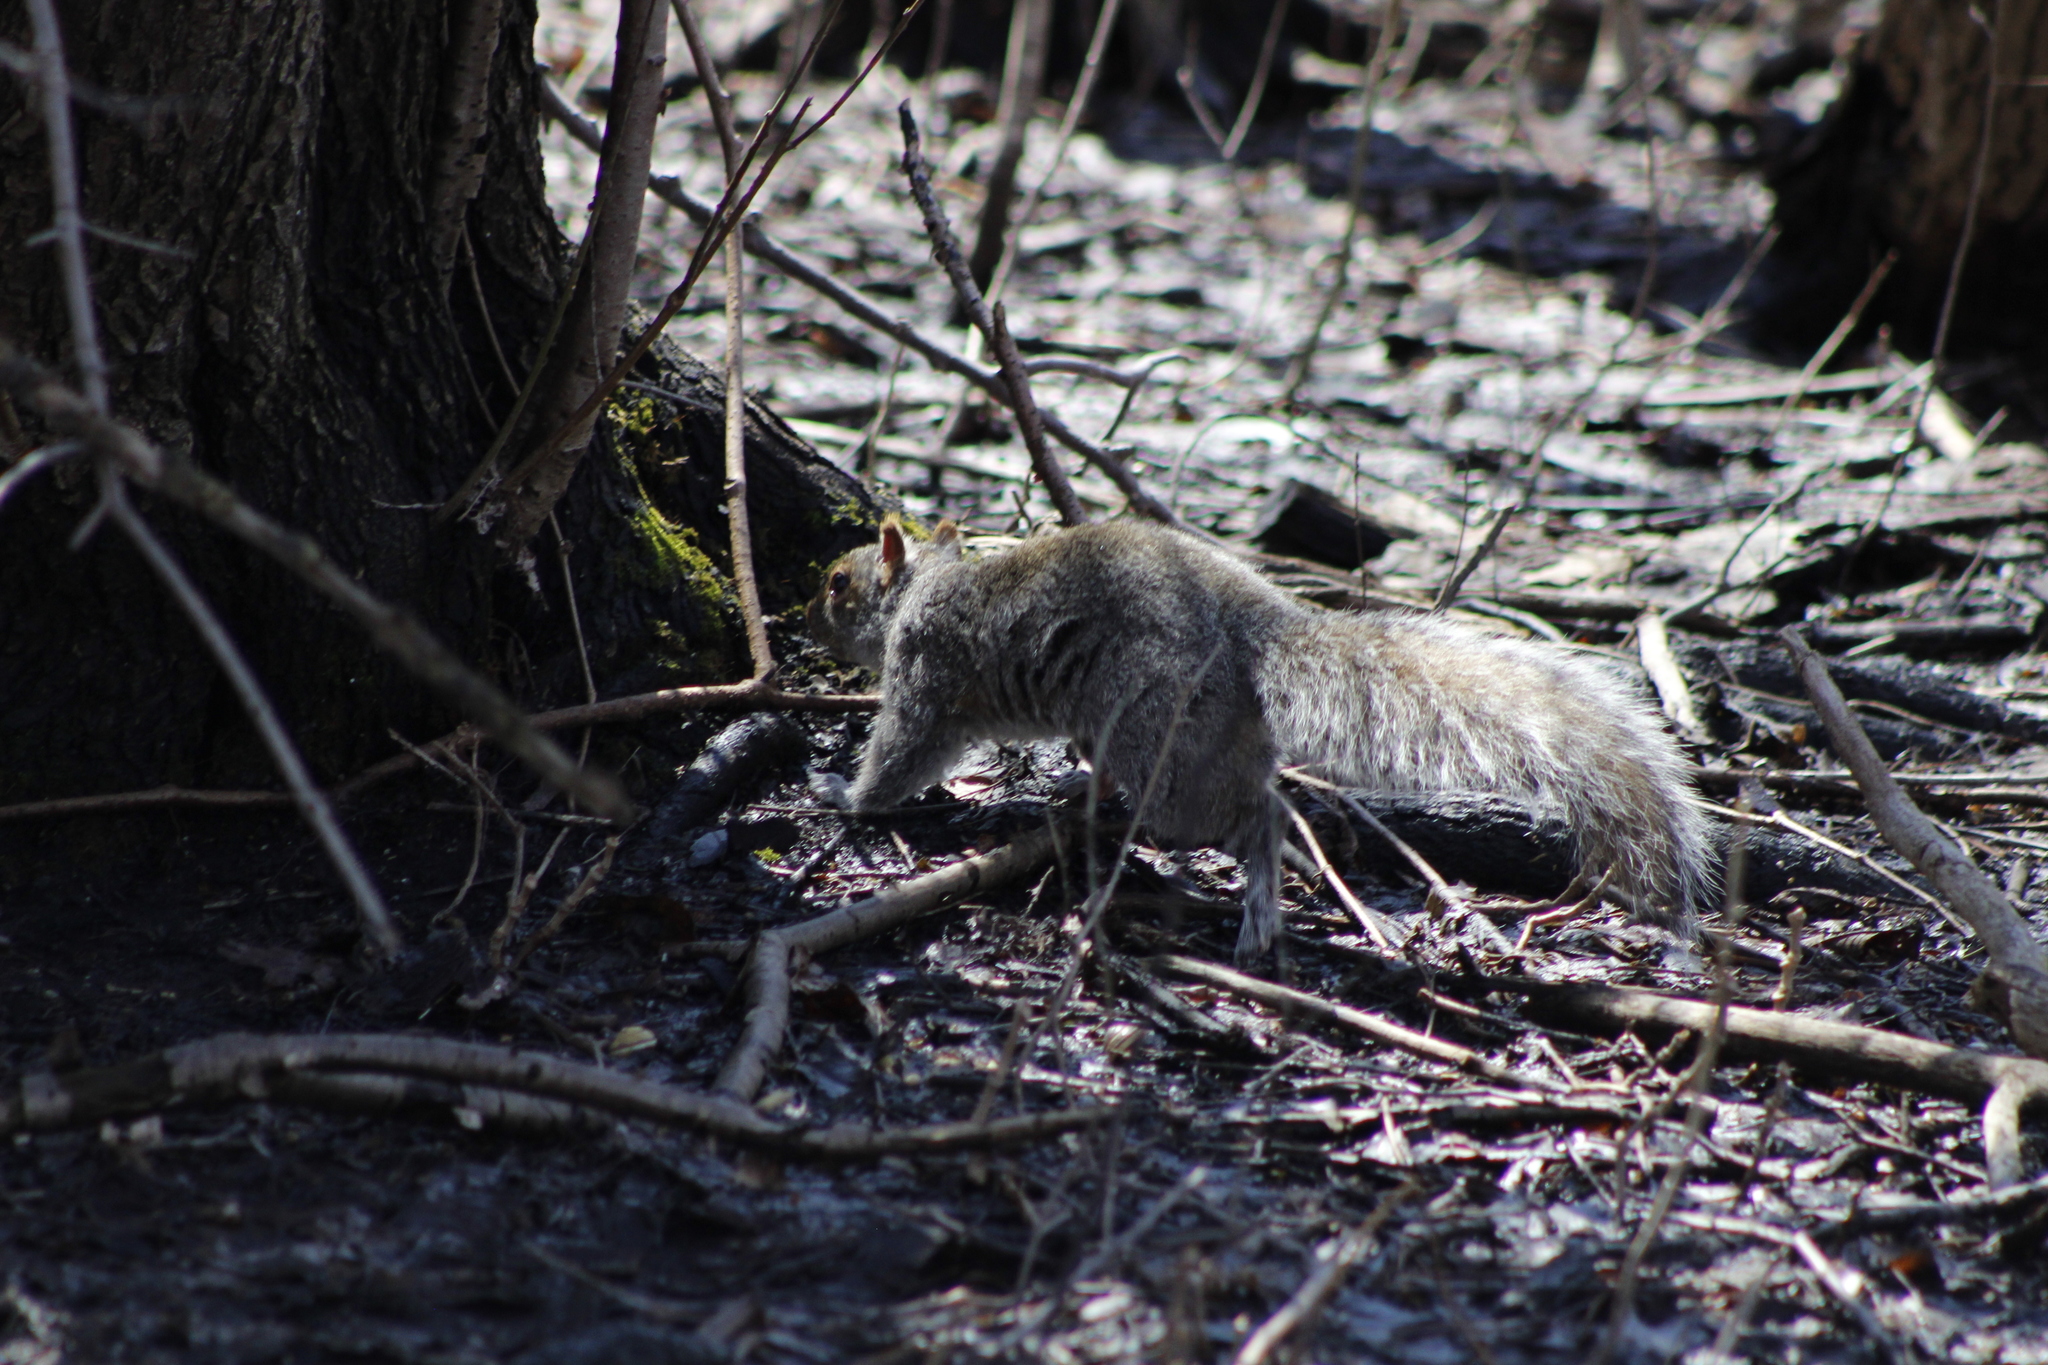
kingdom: Animalia
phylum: Chordata
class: Mammalia
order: Rodentia
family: Sciuridae
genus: Sciurus
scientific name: Sciurus carolinensis
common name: Eastern gray squirrel
